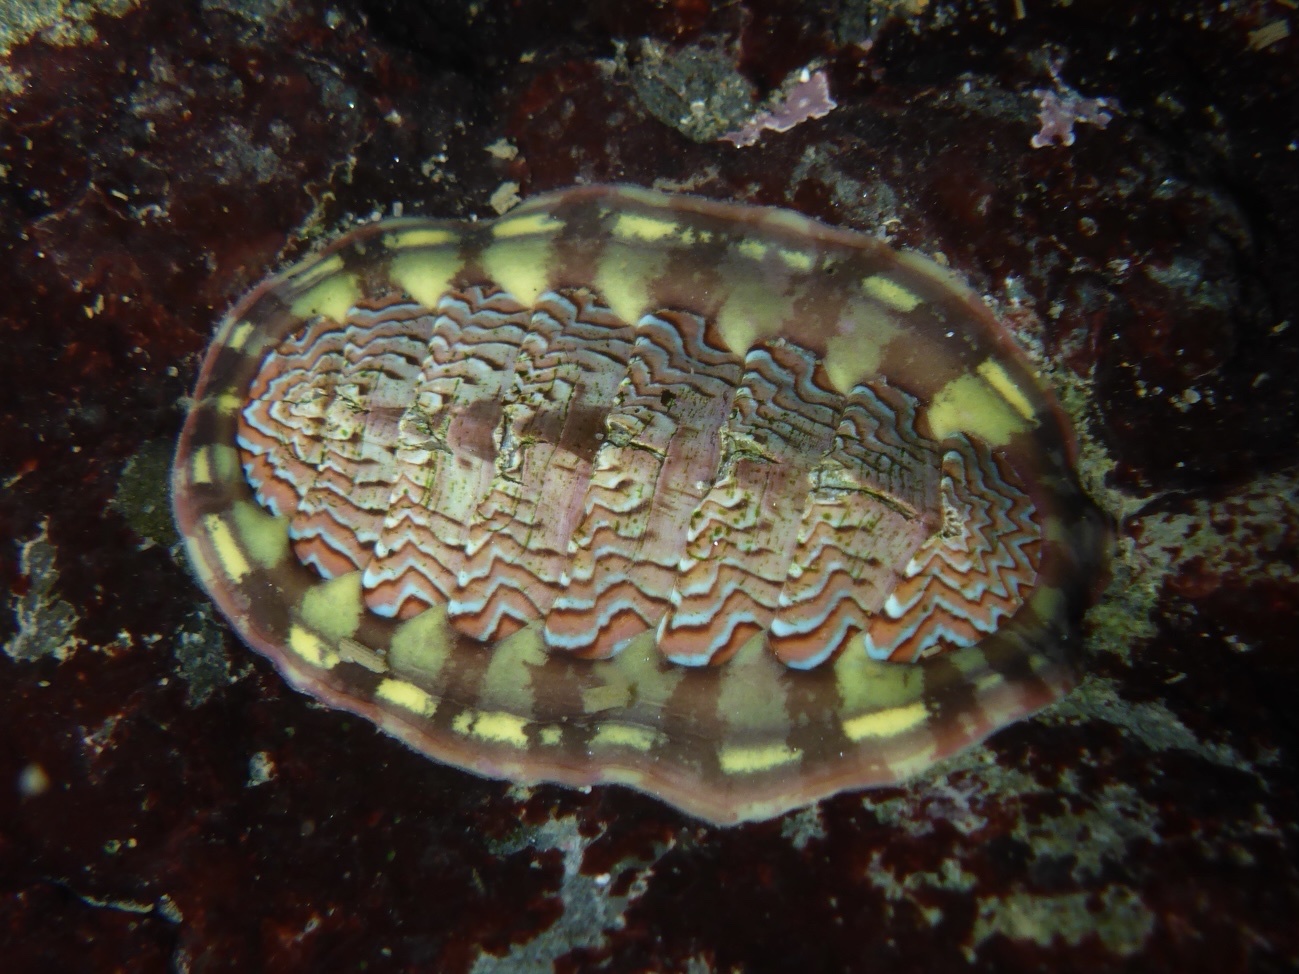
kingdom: Animalia
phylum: Mollusca
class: Polyplacophora
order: Chitonida
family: Tonicellidae
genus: Tonicella
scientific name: Tonicella lokii
